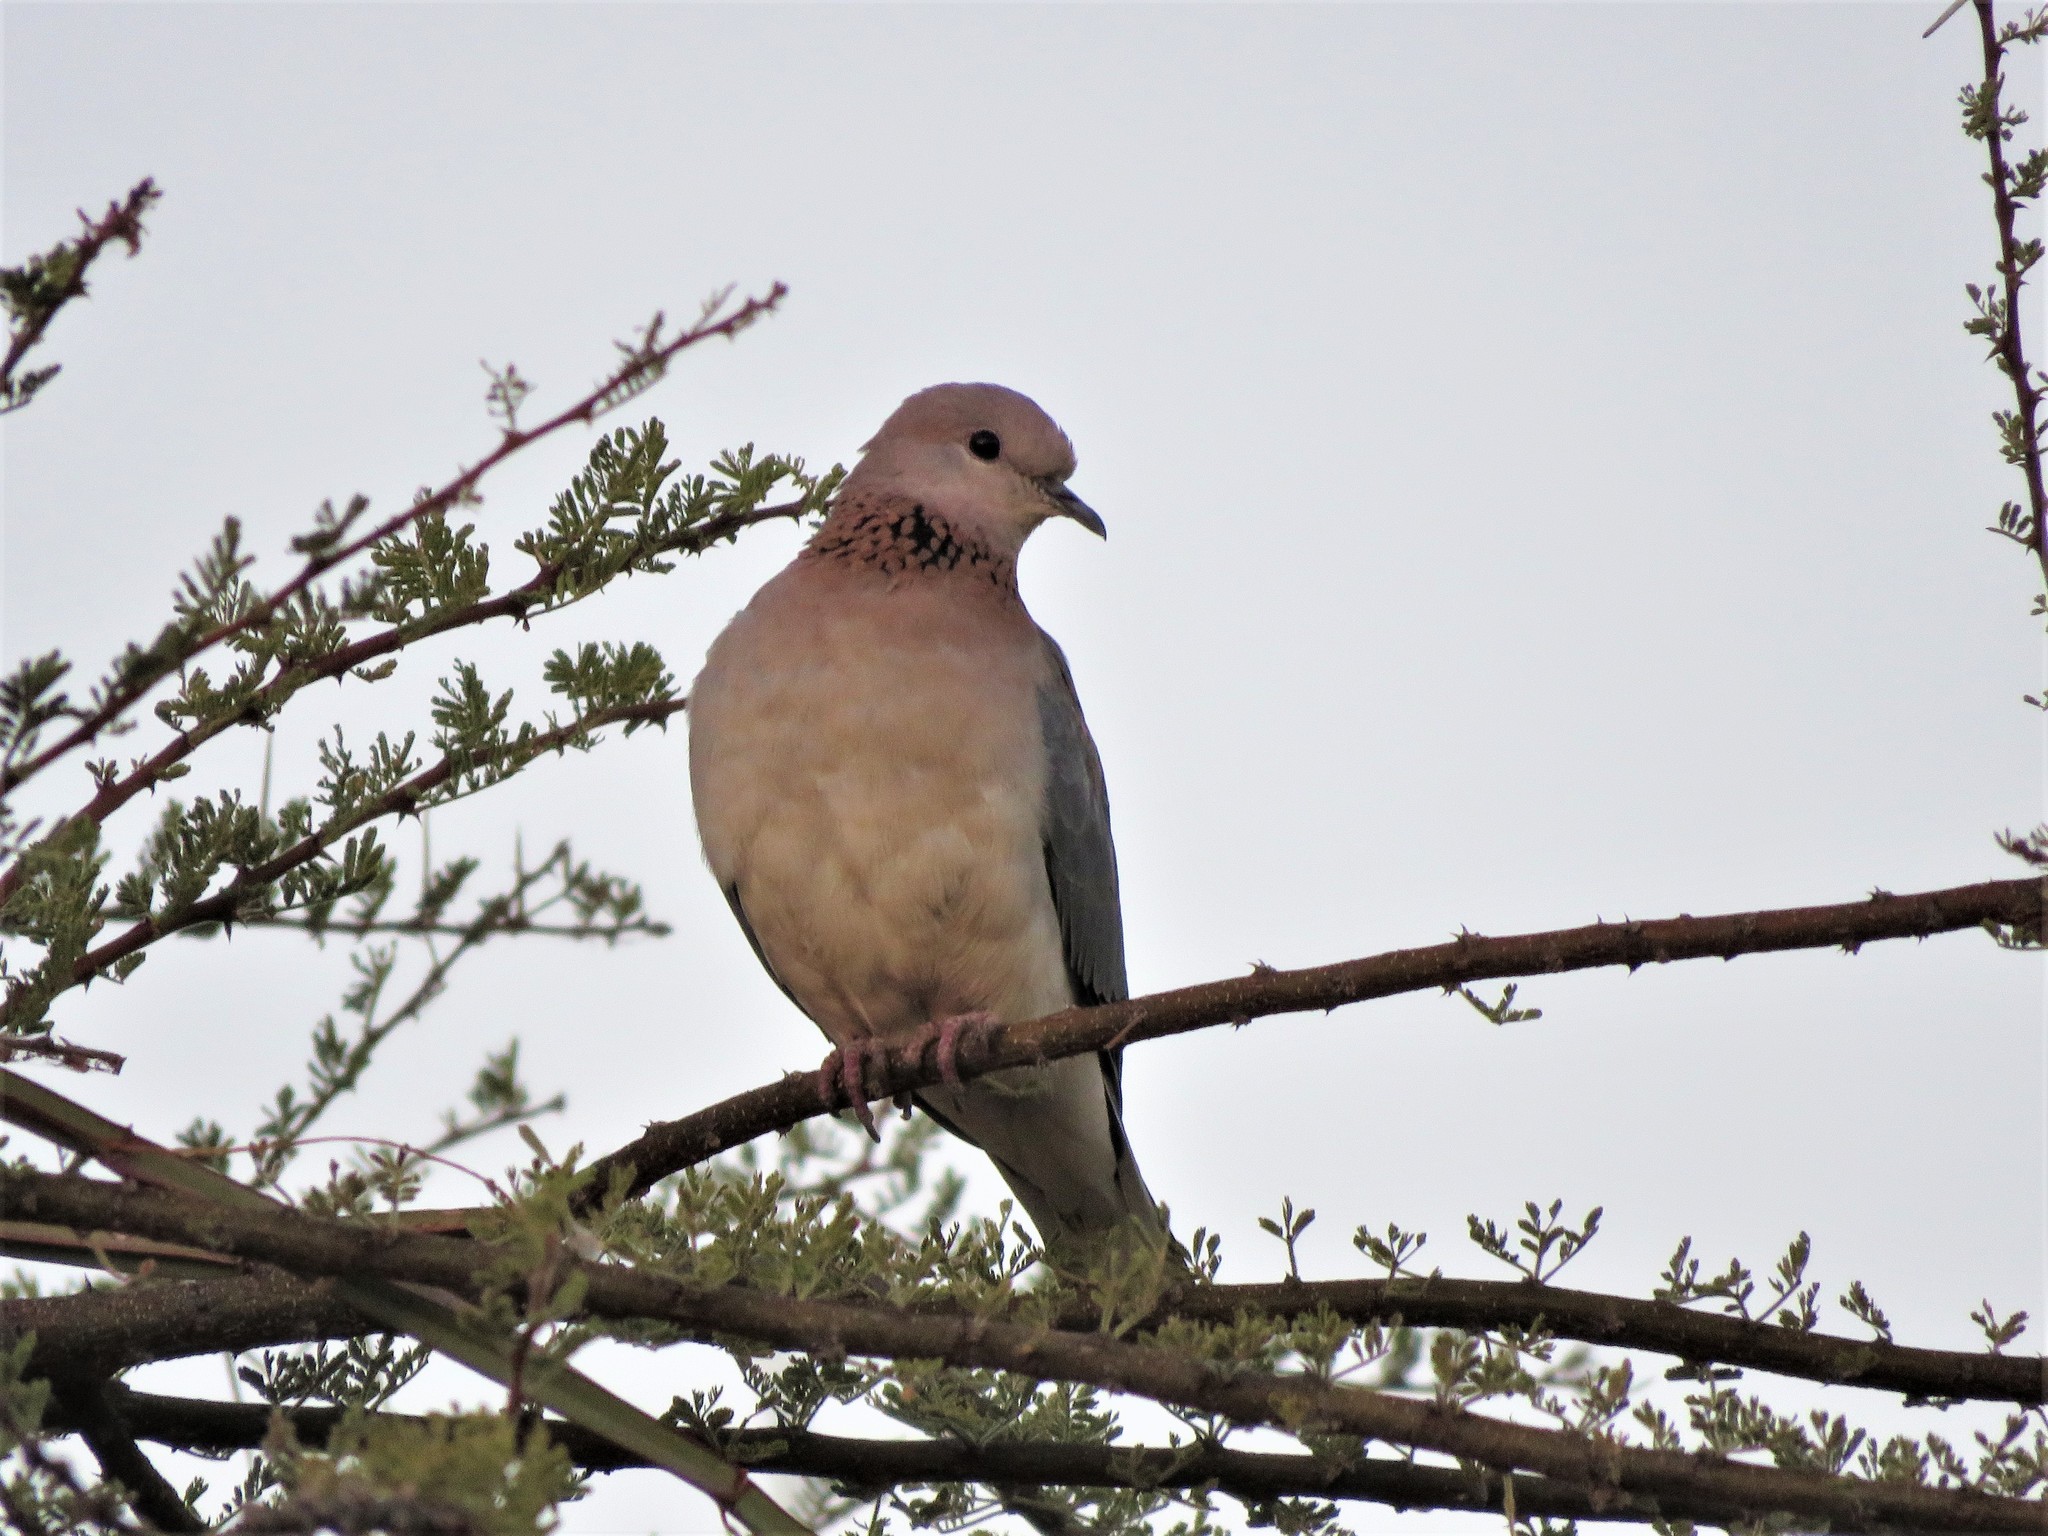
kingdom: Animalia
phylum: Chordata
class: Aves
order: Columbiformes
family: Columbidae
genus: Spilopelia
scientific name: Spilopelia senegalensis
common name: Laughing dove
